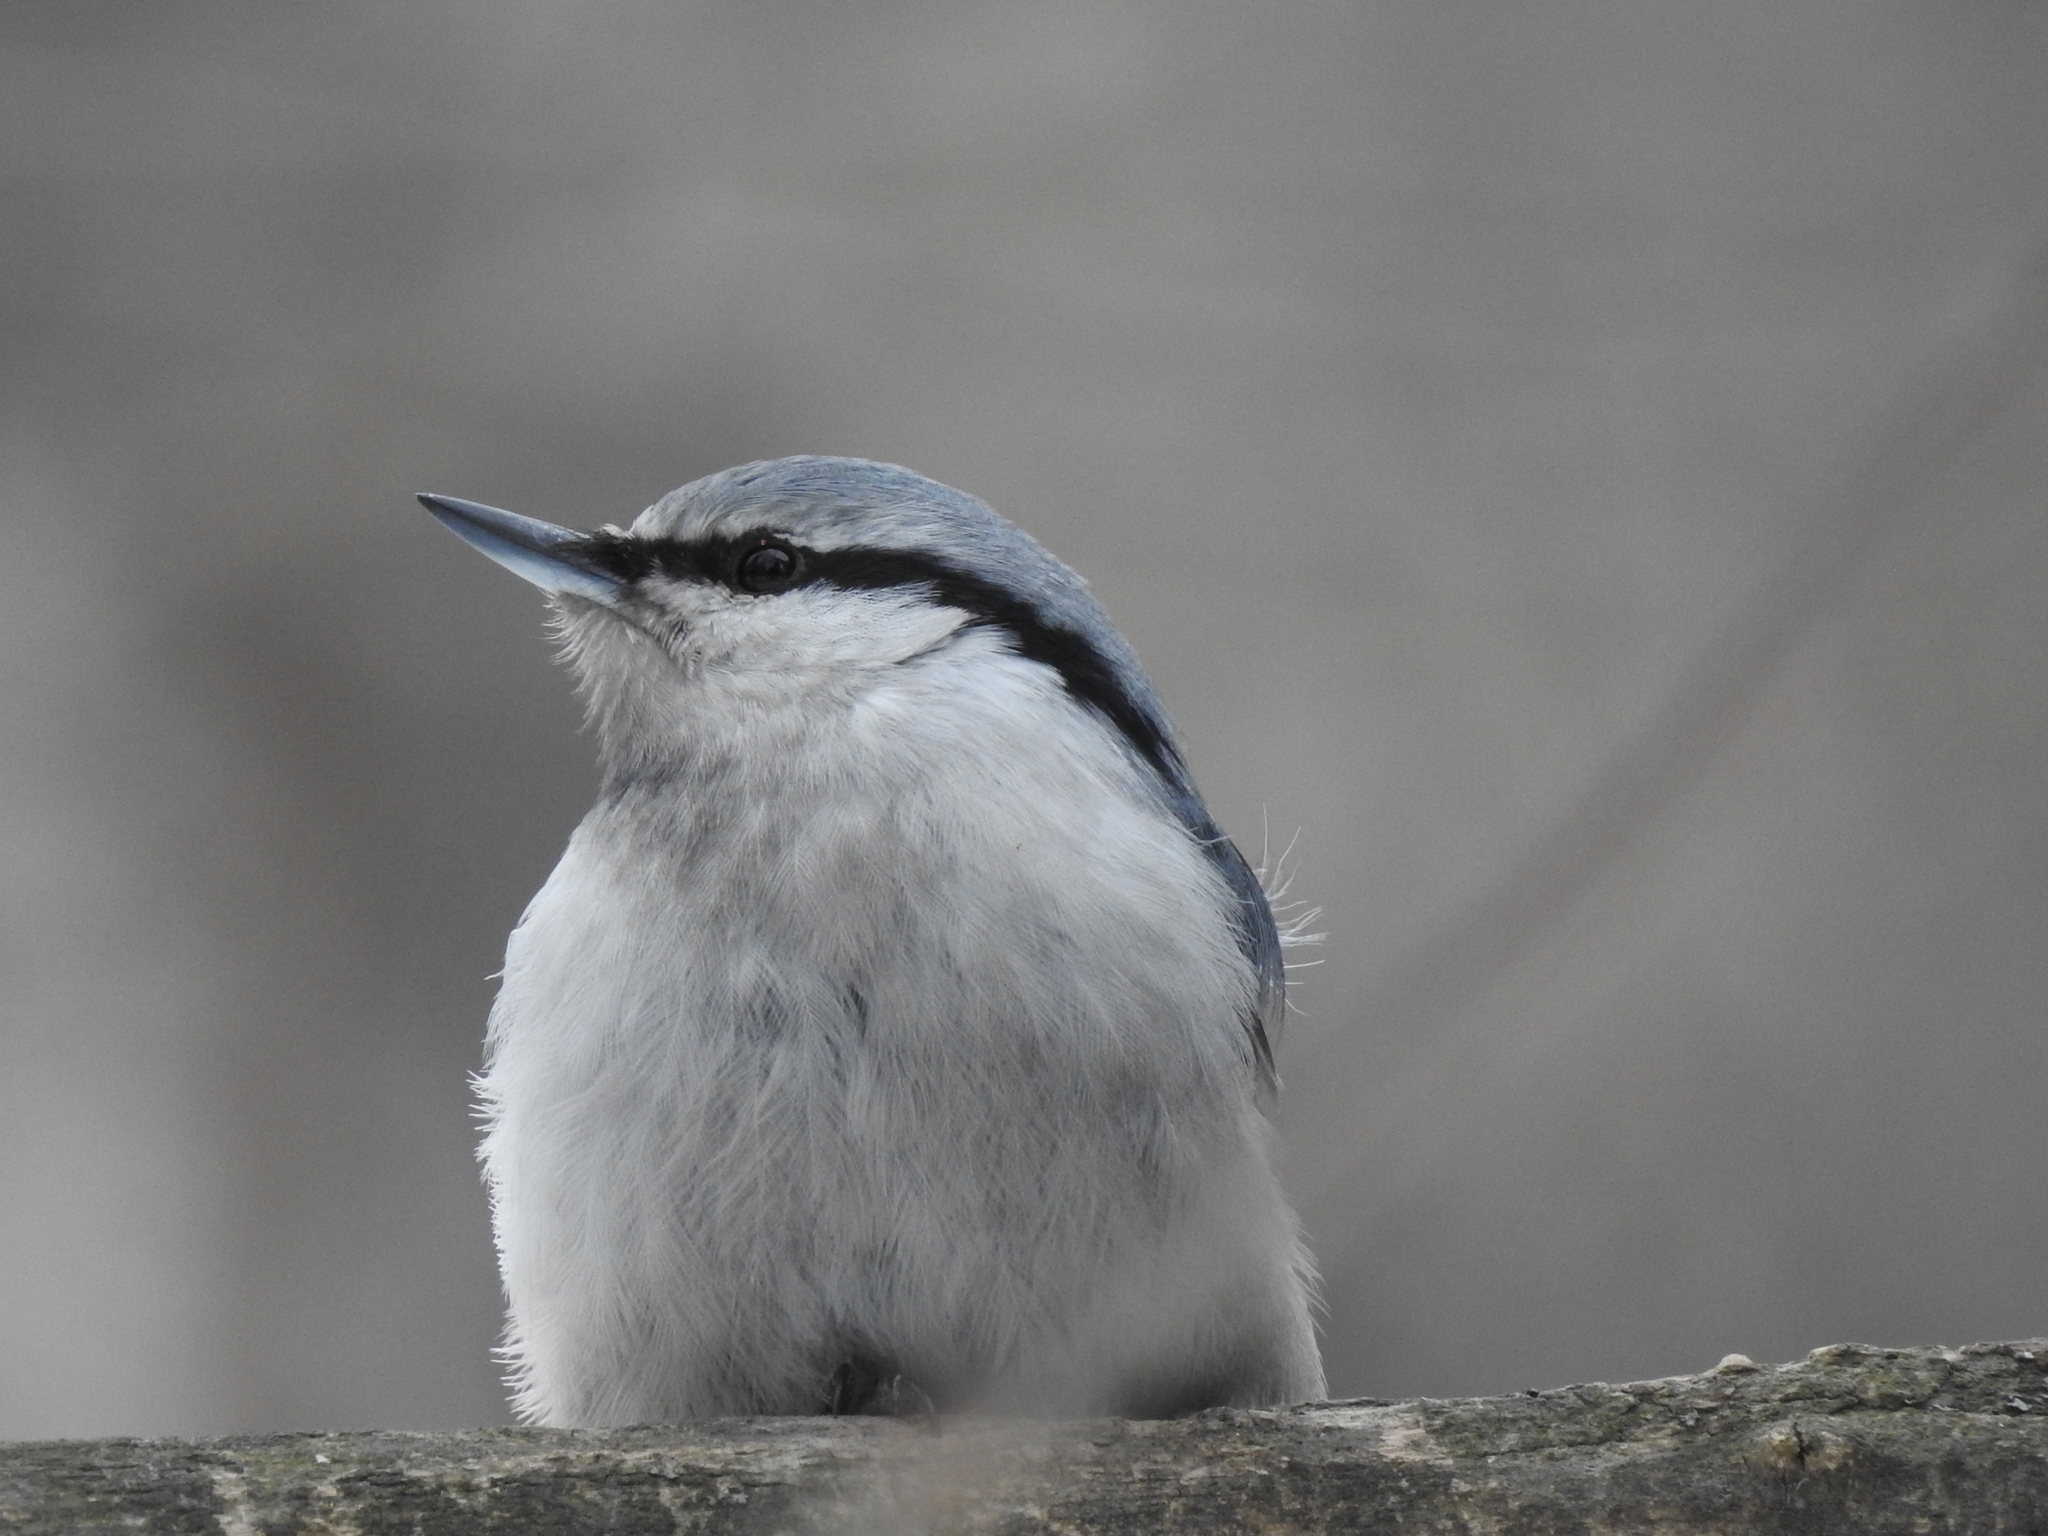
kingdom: Animalia
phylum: Chordata
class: Aves
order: Passeriformes
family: Sittidae
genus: Sitta
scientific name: Sitta europaea
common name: Eurasian nuthatch
